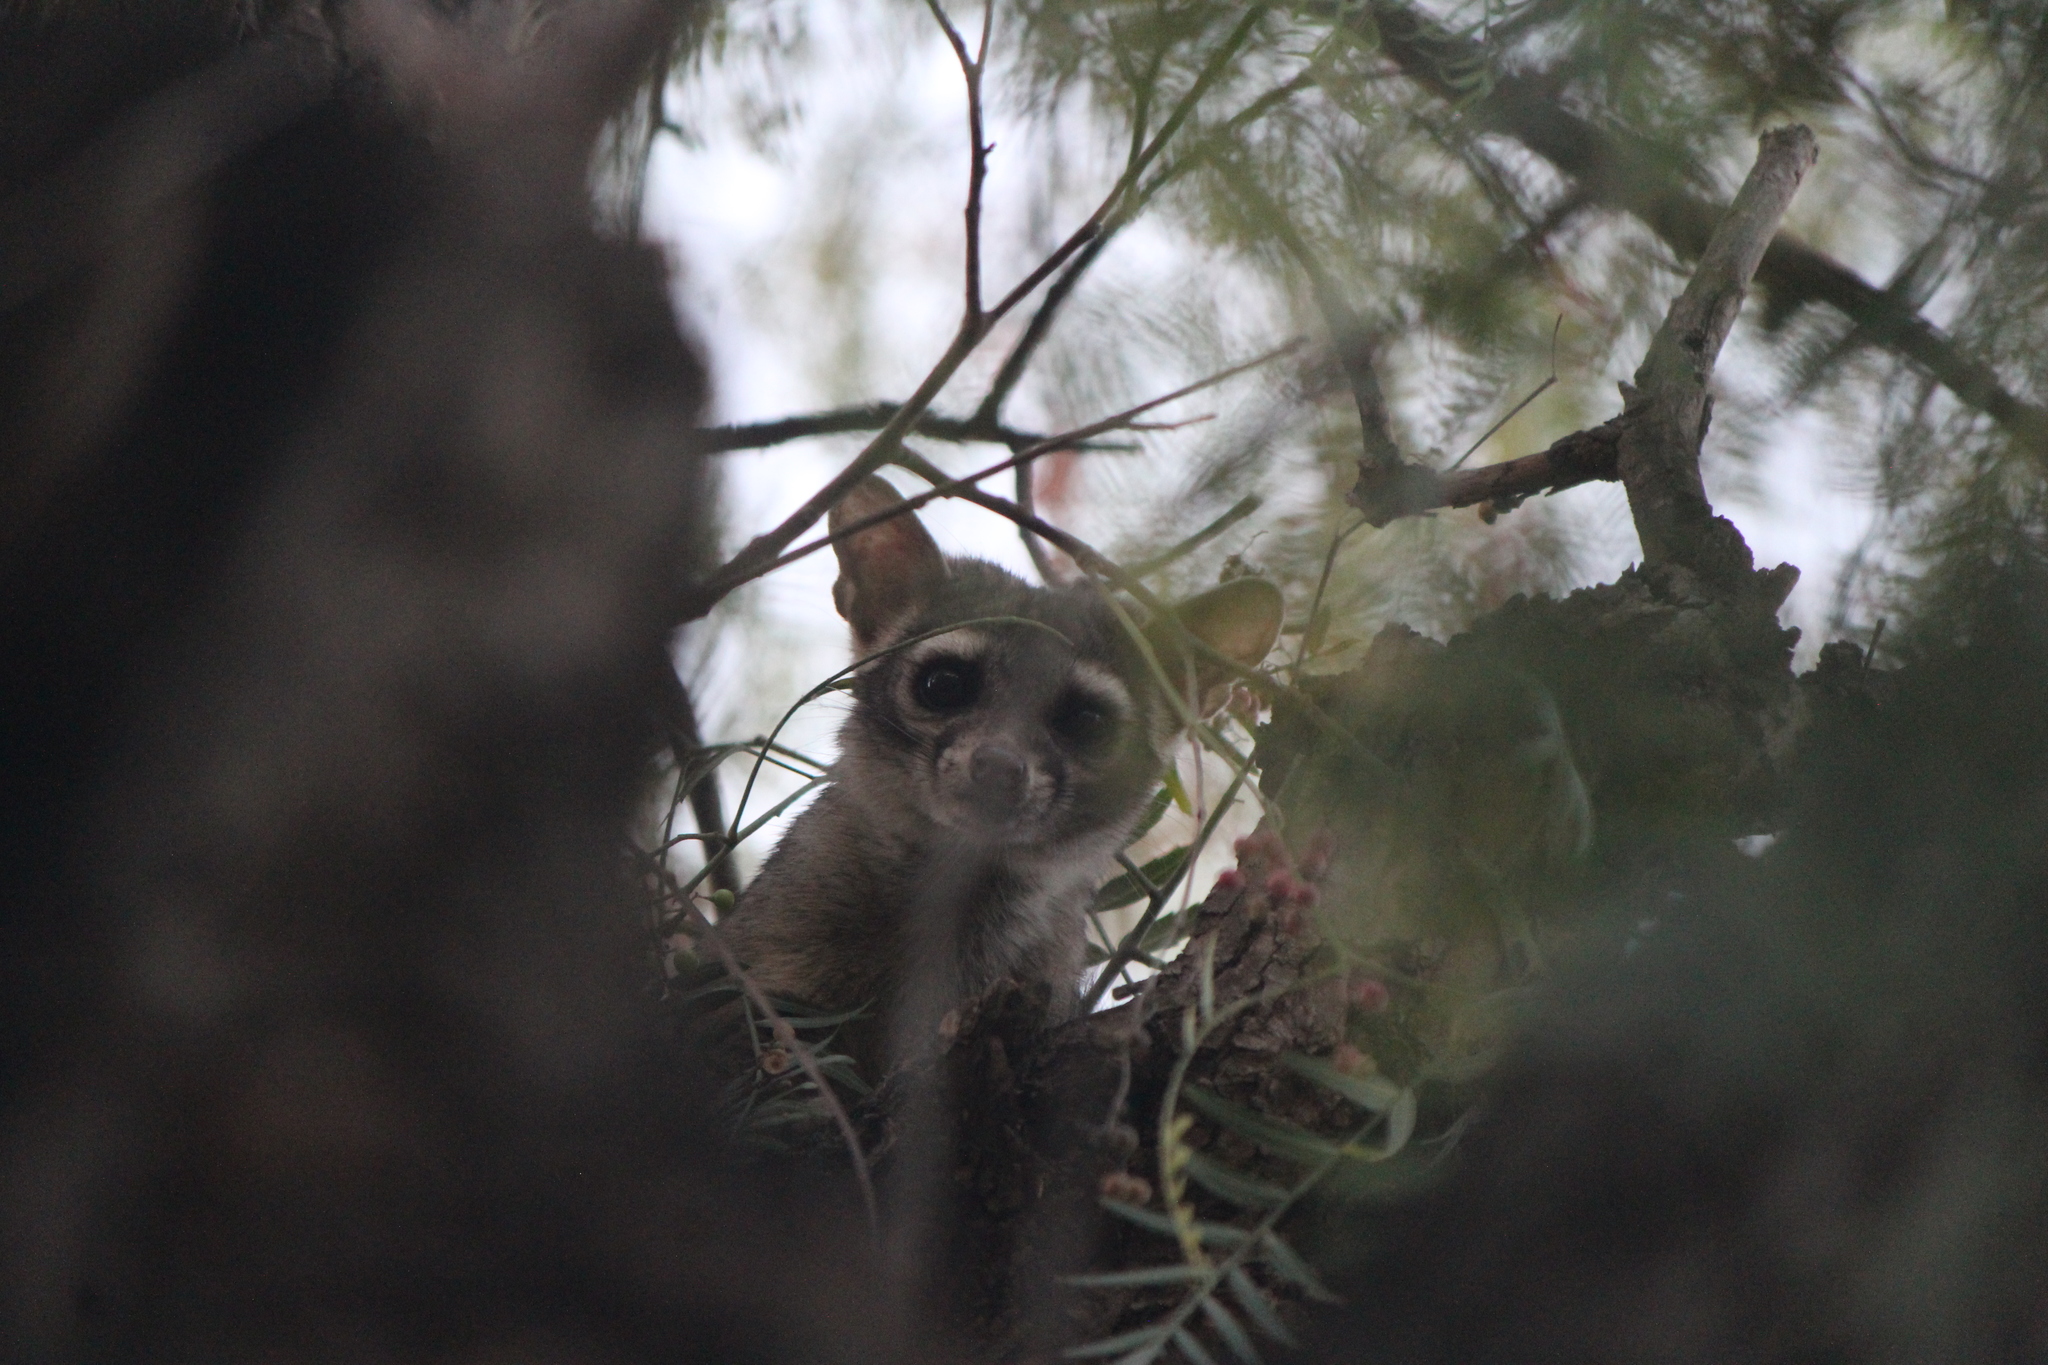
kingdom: Animalia
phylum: Chordata
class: Mammalia
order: Carnivora
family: Procyonidae
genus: Bassariscus
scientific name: Bassariscus astutus
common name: Ringtail
